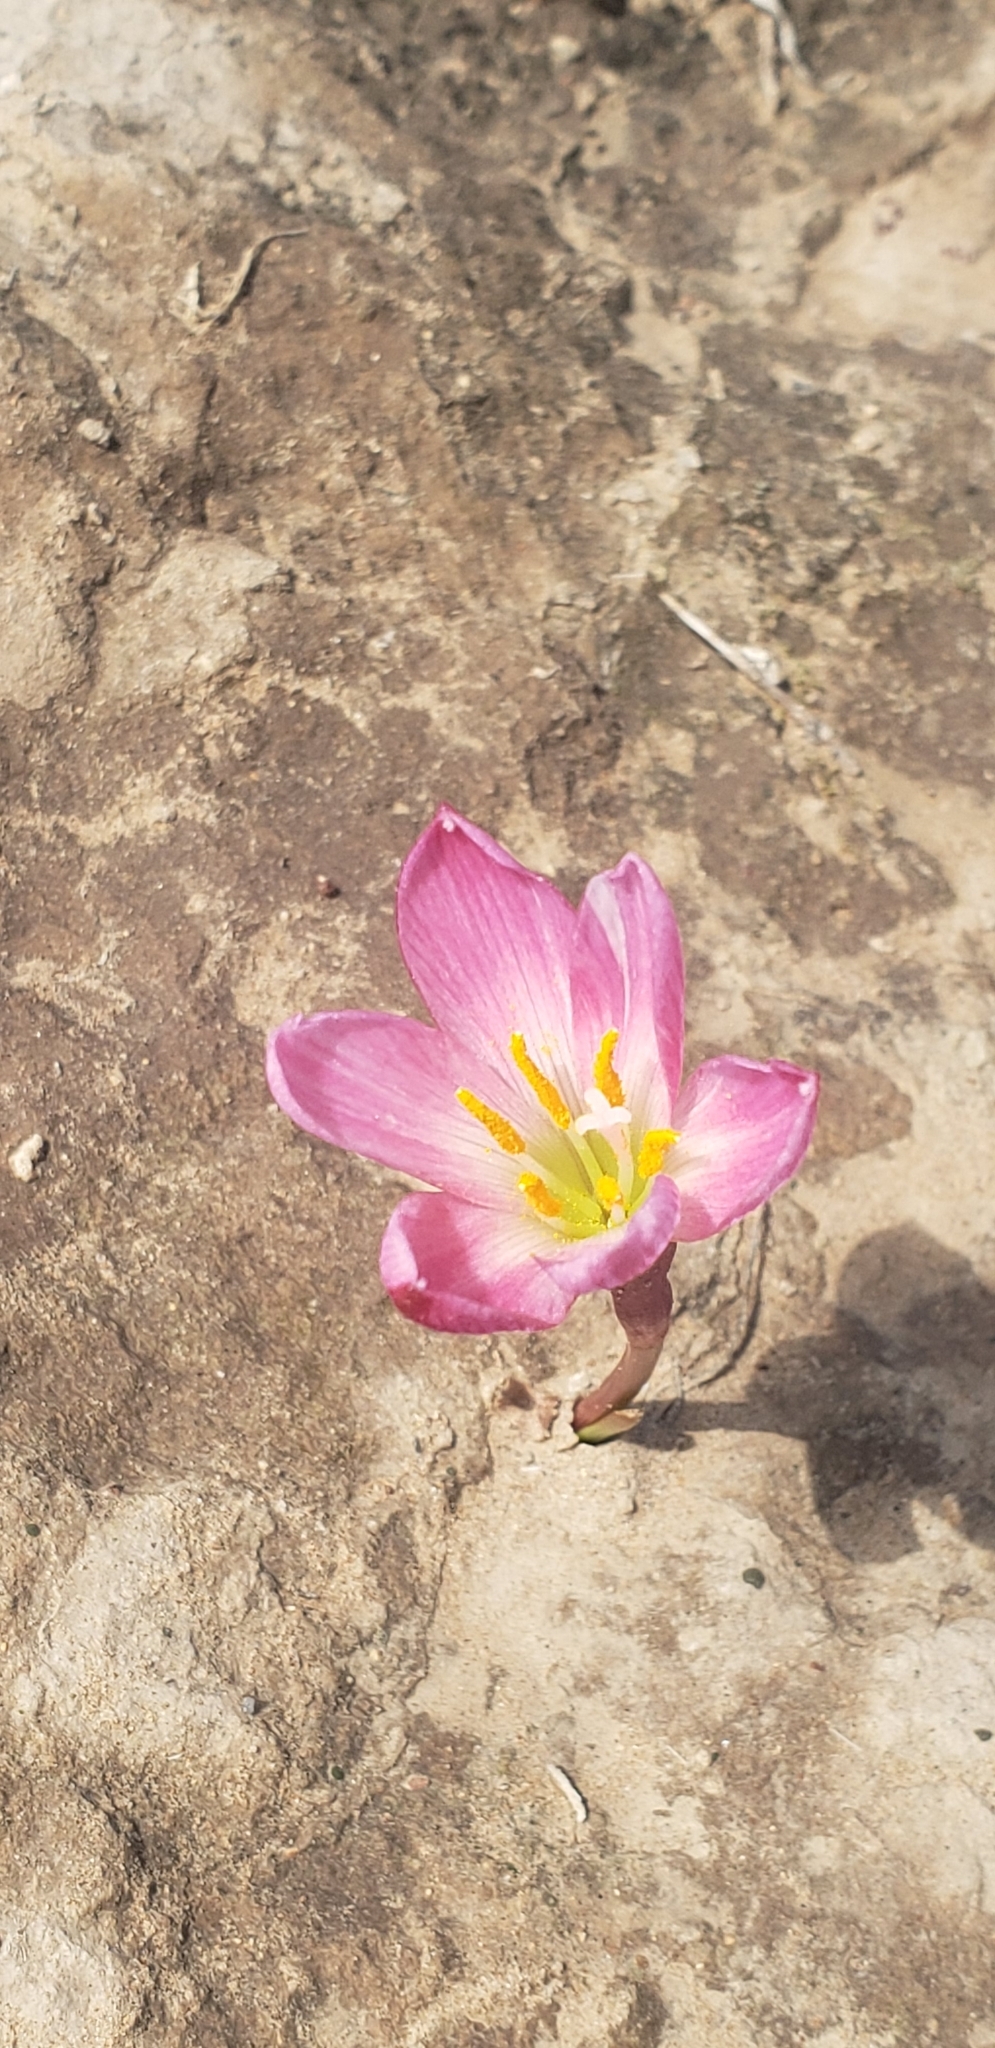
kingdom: Plantae
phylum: Tracheophyta
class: Liliopsida
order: Asparagales
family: Amaryllidaceae
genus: Zephyranthes
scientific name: Zephyranthes fosteri
